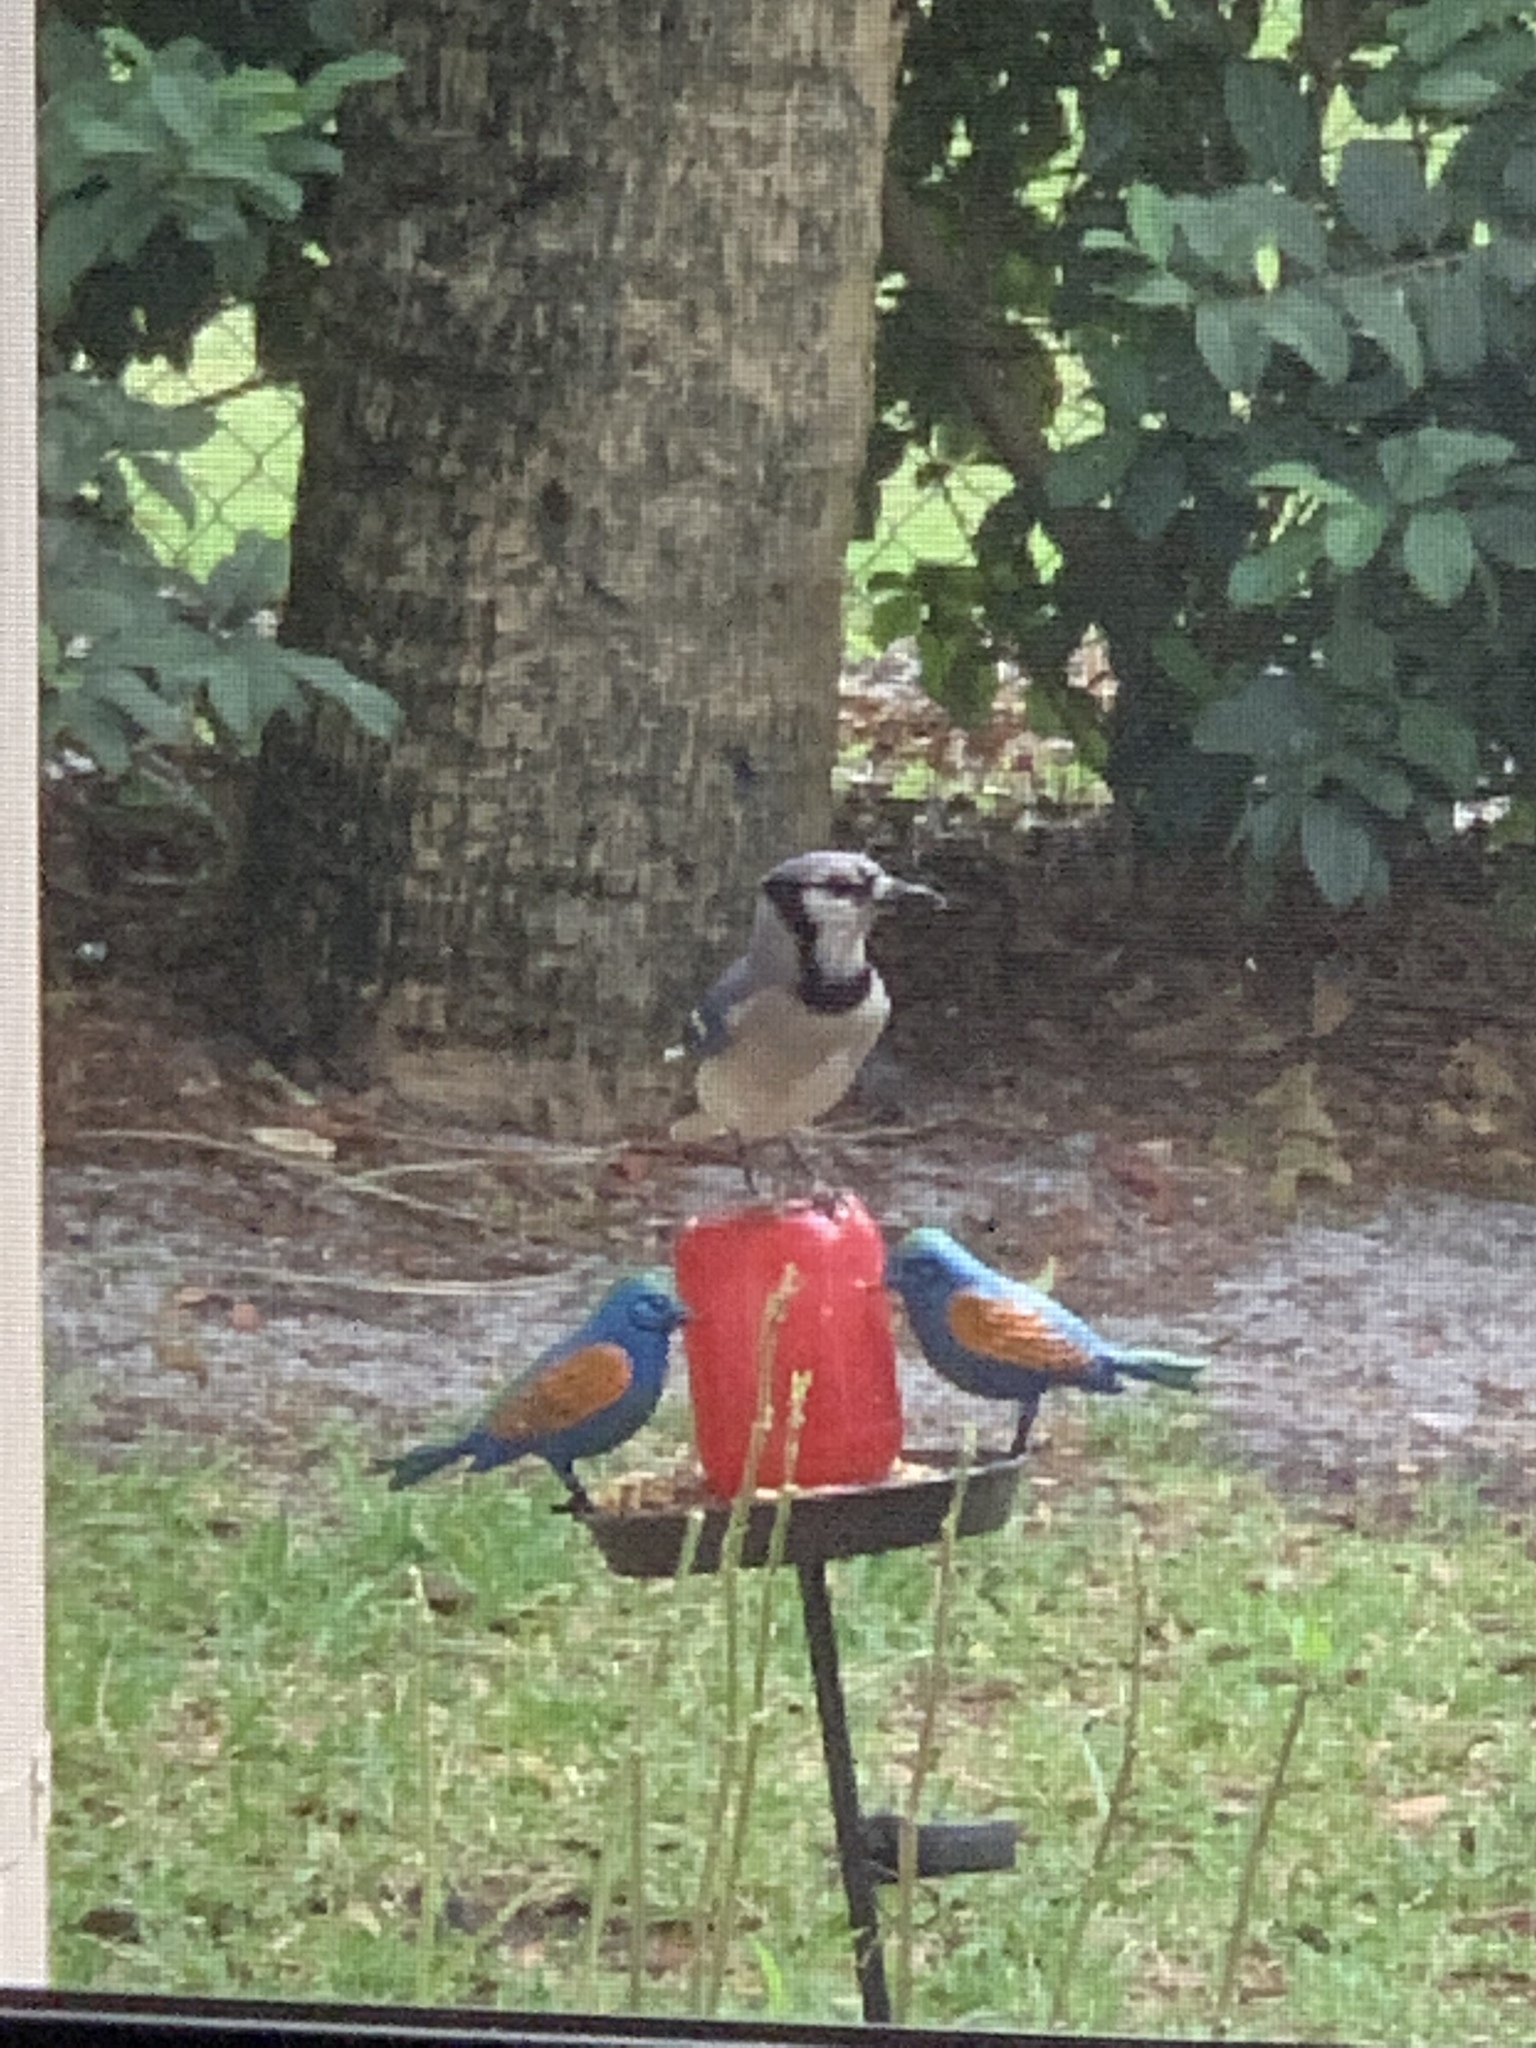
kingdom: Animalia
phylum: Chordata
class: Aves
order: Passeriformes
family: Corvidae
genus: Cyanocitta
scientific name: Cyanocitta cristata
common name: Blue jay
